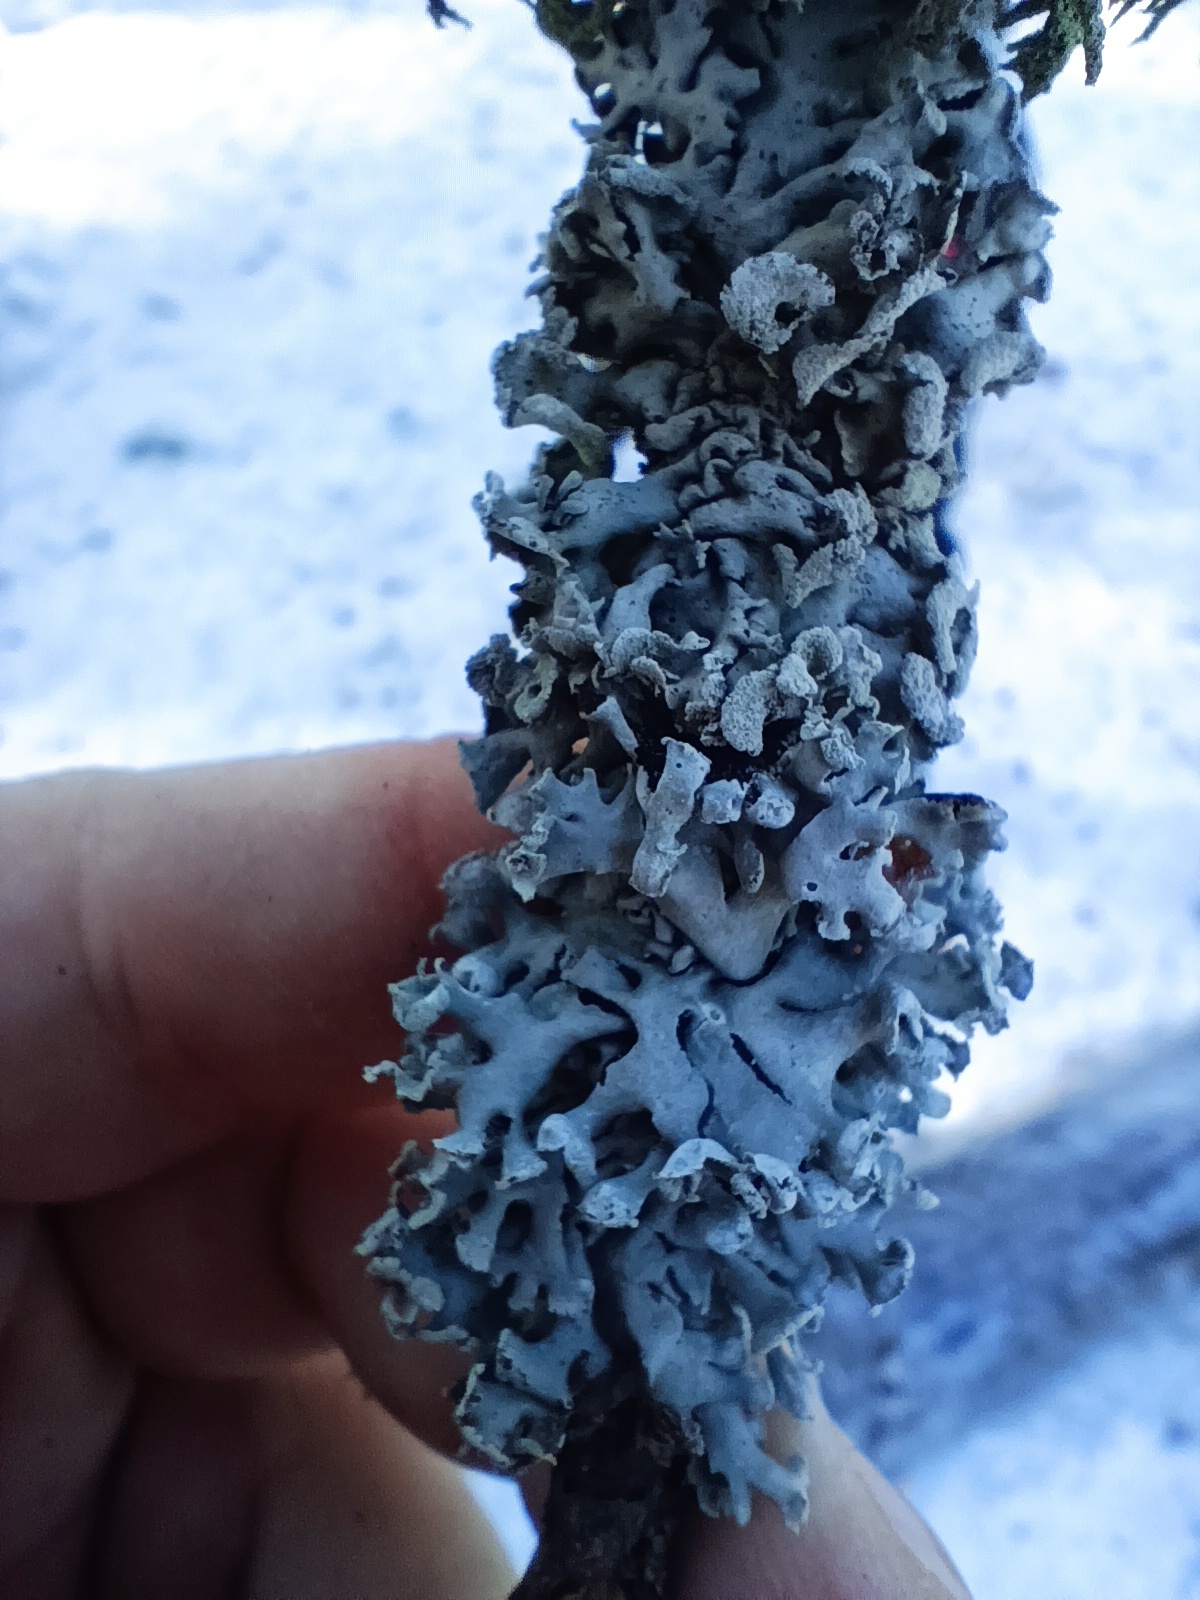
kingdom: Fungi
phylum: Ascomycota
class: Lecanoromycetes
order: Lecanorales
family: Parmeliaceae
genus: Hypogymnia
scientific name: Hypogymnia physodes
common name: Dark crottle
